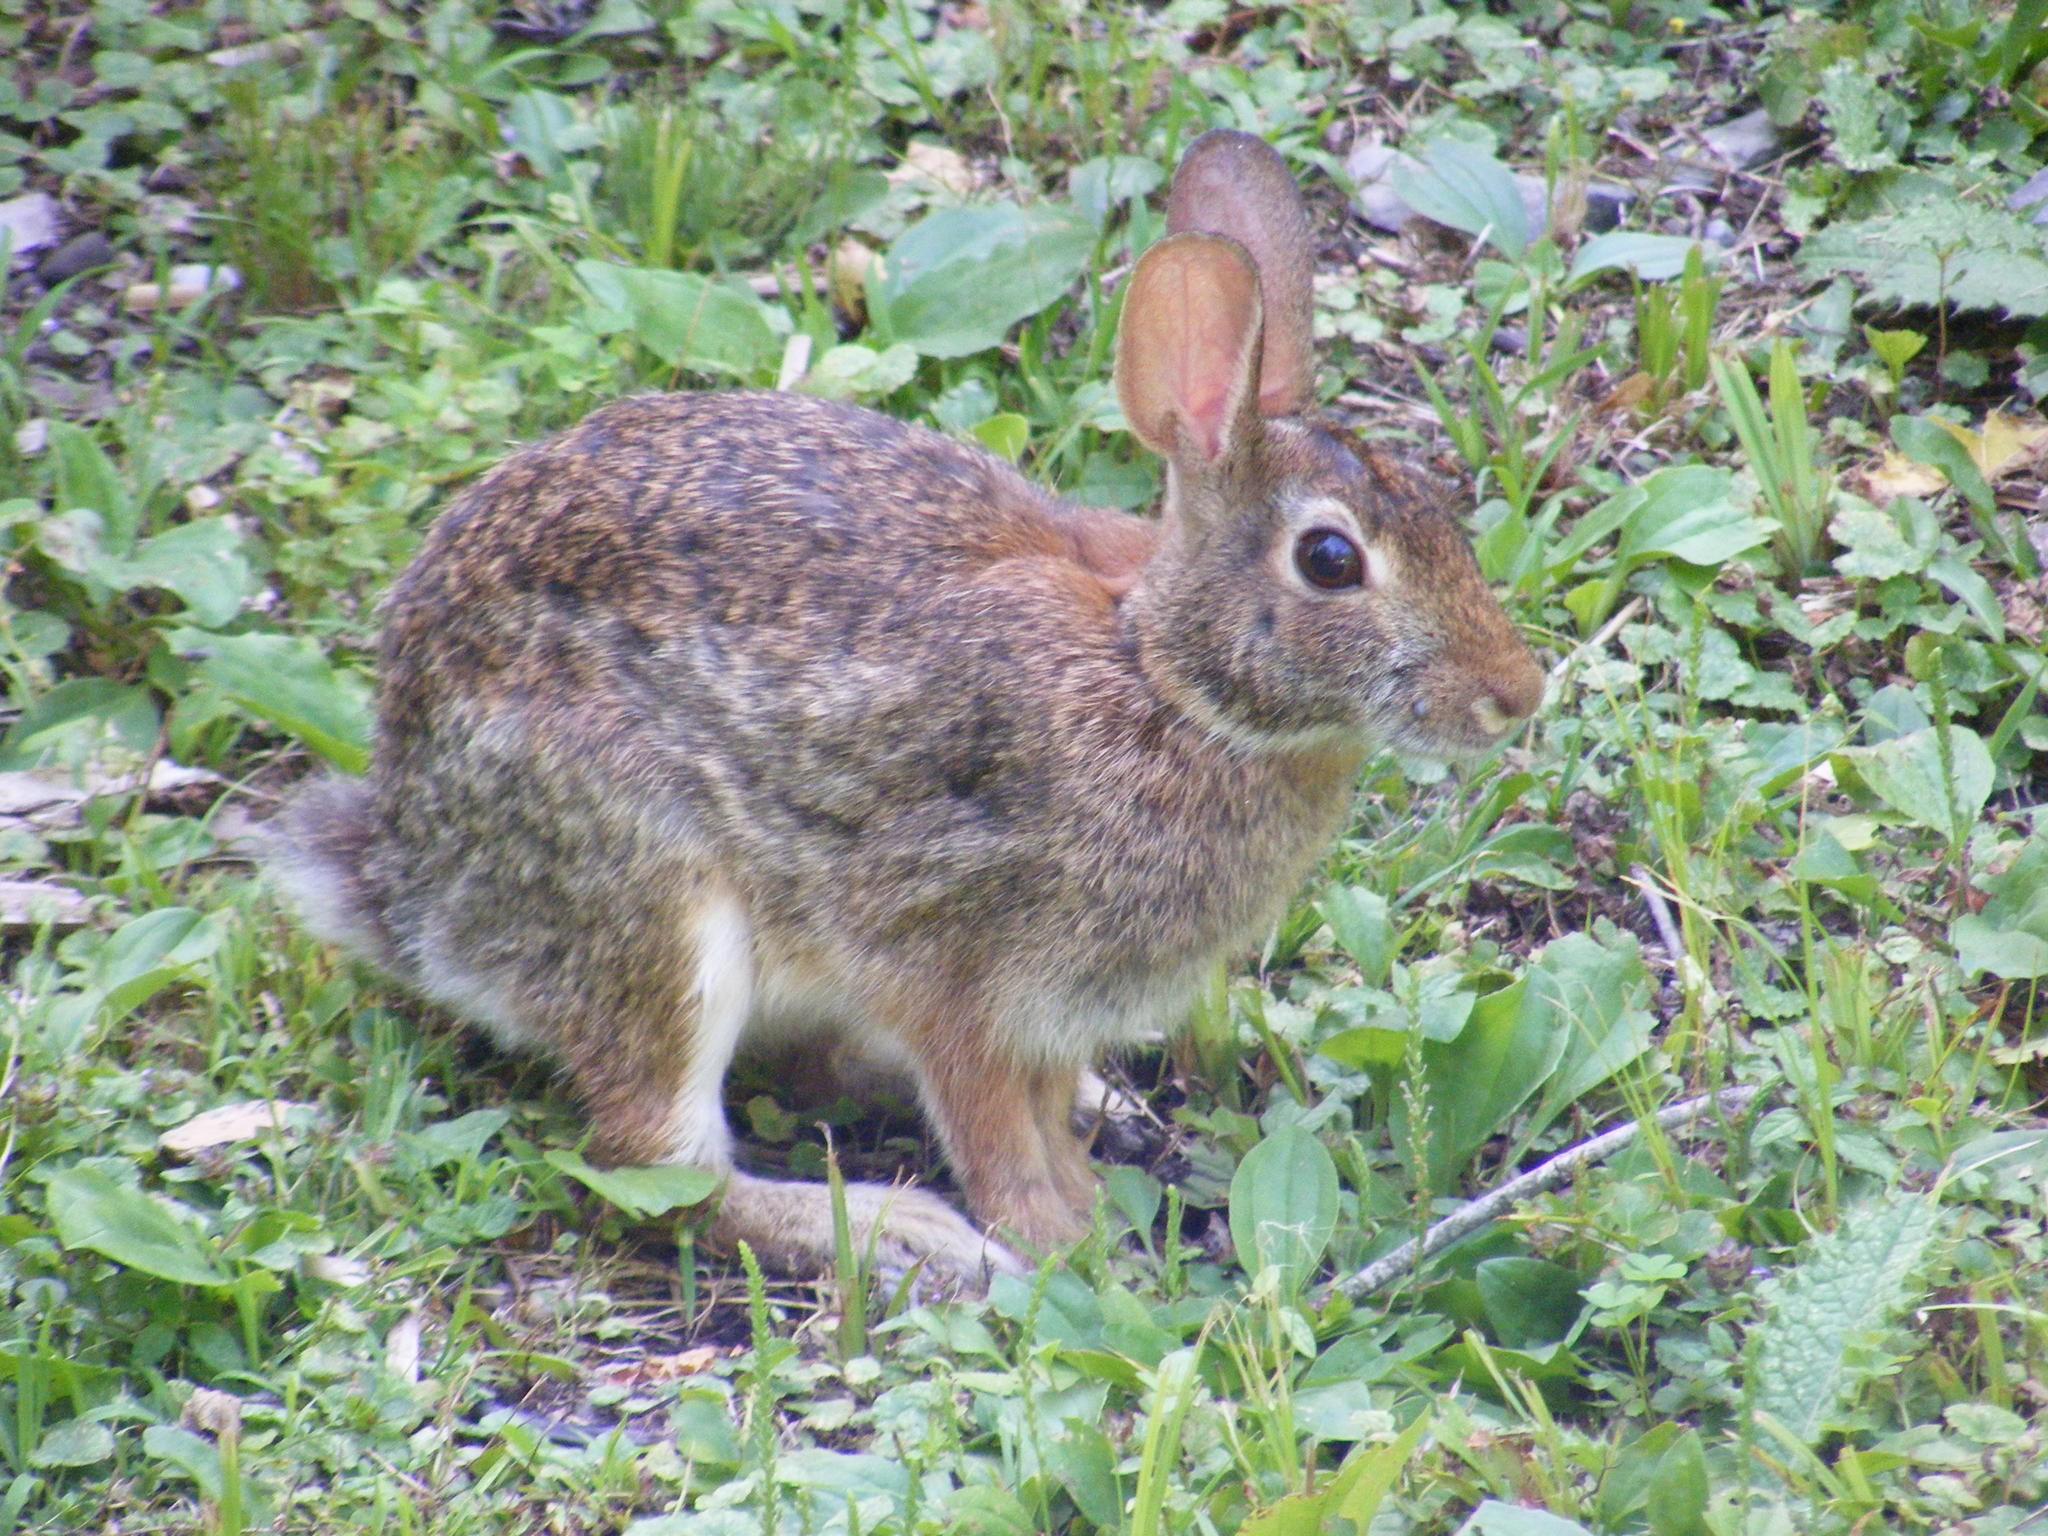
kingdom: Animalia
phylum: Chordata
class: Mammalia
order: Lagomorpha
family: Leporidae
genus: Sylvilagus
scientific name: Sylvilagus floridanus
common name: Eastern cottontail
